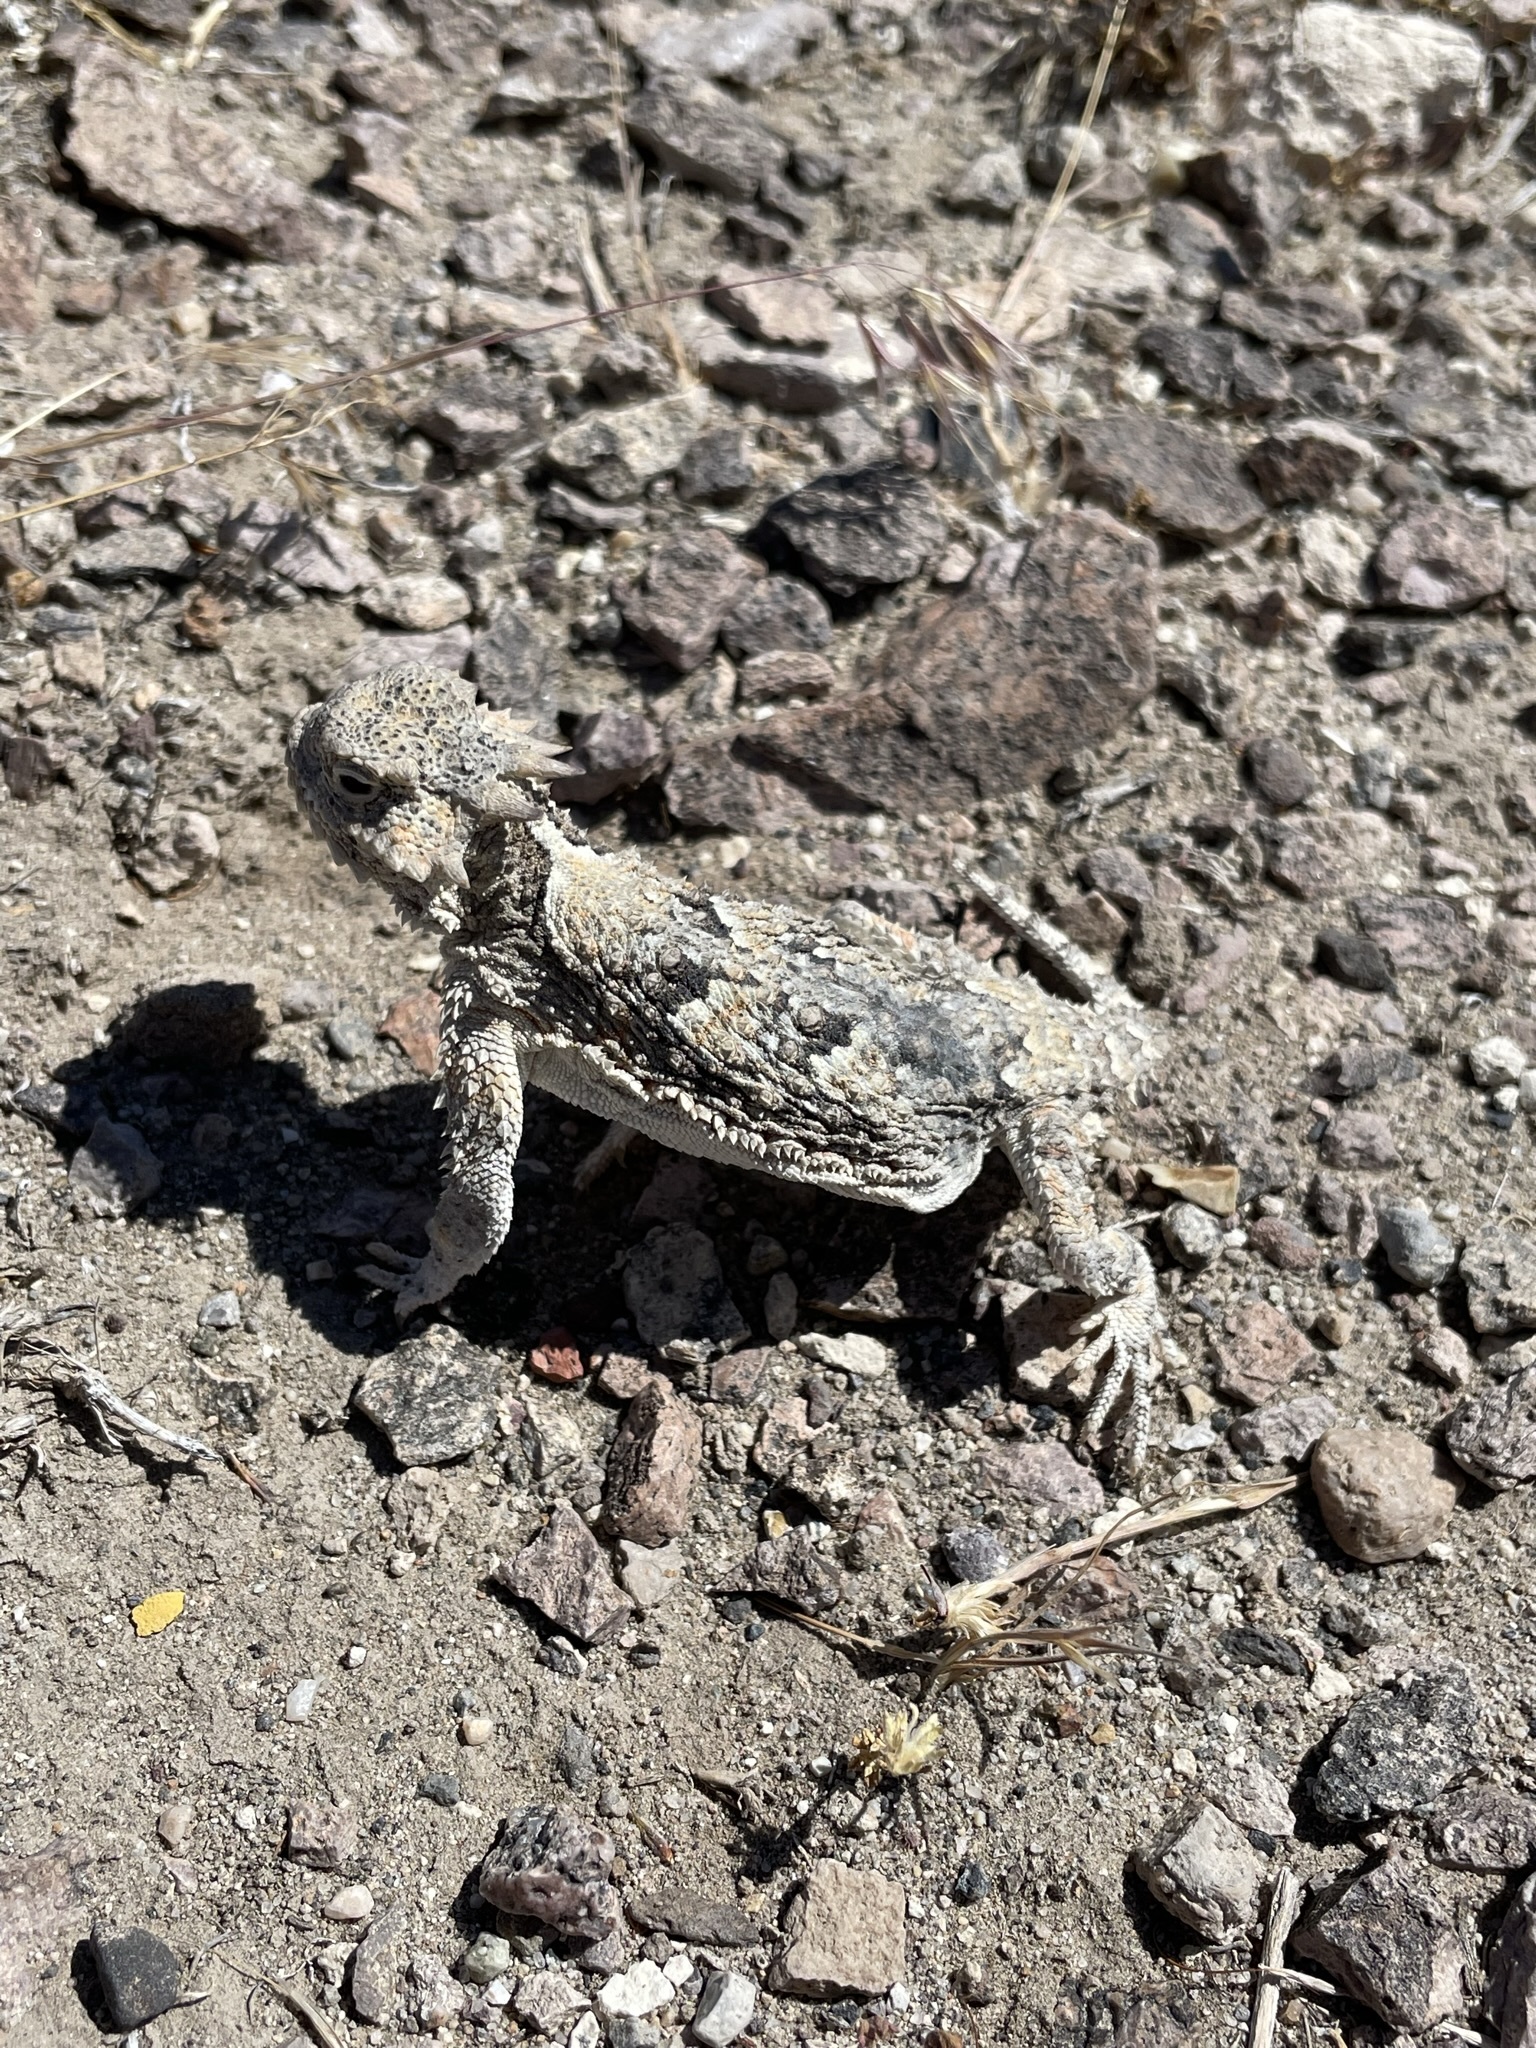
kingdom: Animalia
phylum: Chordata
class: Squamata
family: Phrynosomatidae
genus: Phrynosoma
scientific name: Phrynosoma platyrhinos
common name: Desert horned lizard
